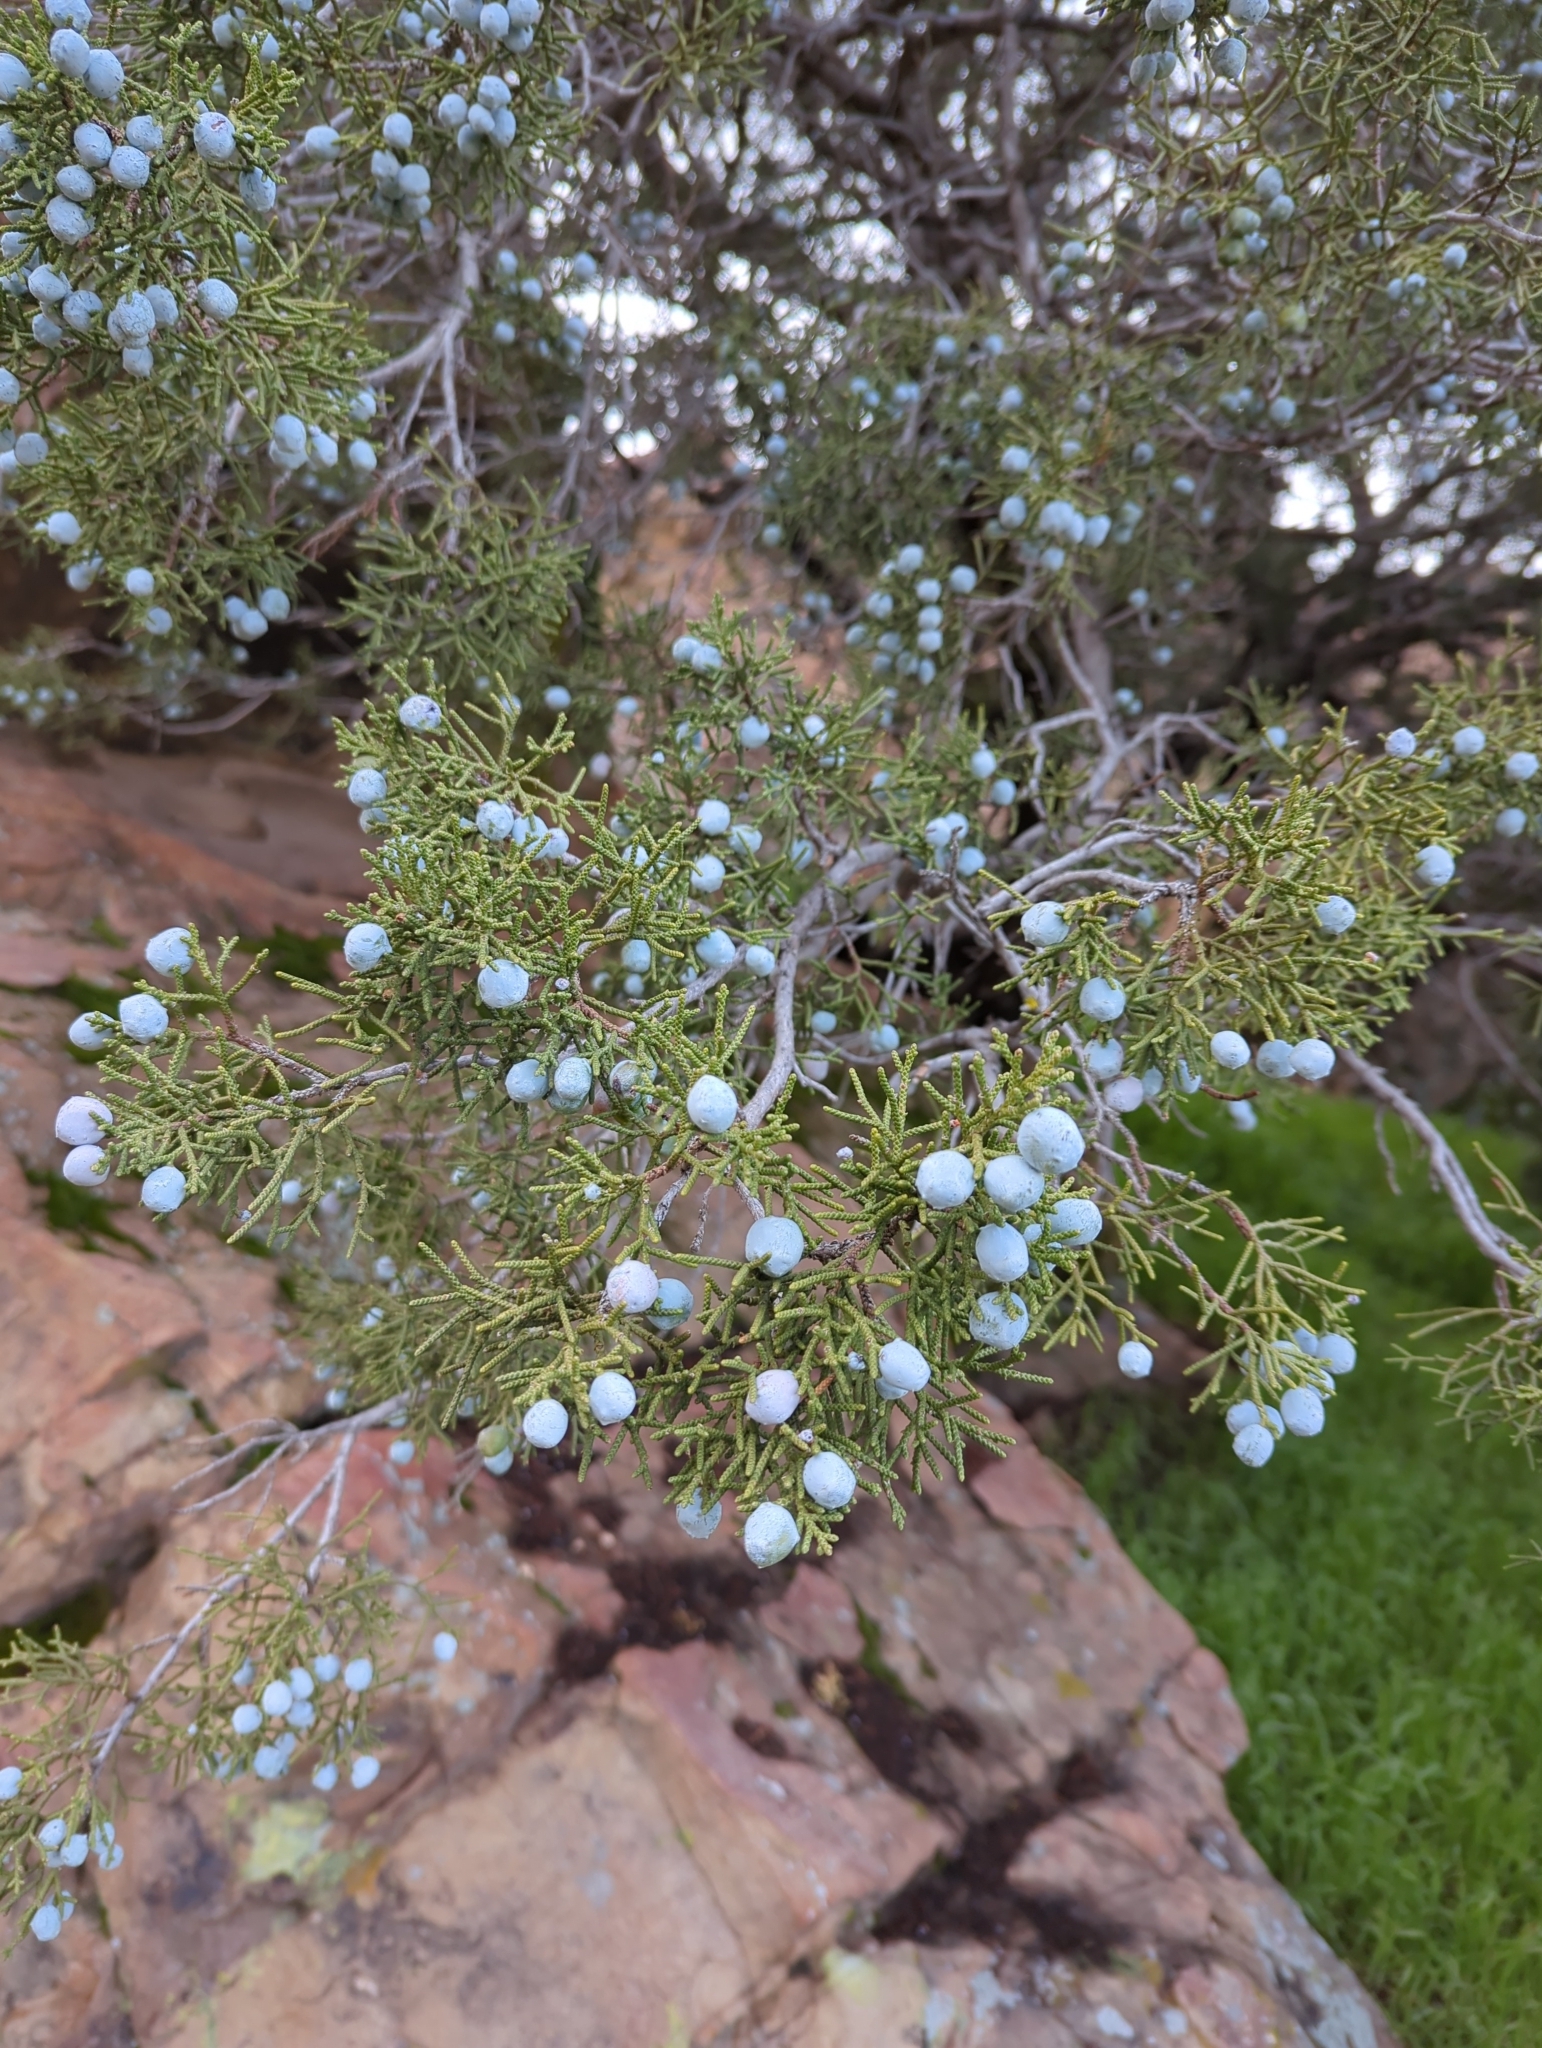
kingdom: Plantae
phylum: Tracheophyta
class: Pinopsida
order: Pinales
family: Cupressaceae
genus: Juniperus
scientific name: Juniperus californica
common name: California juniper
